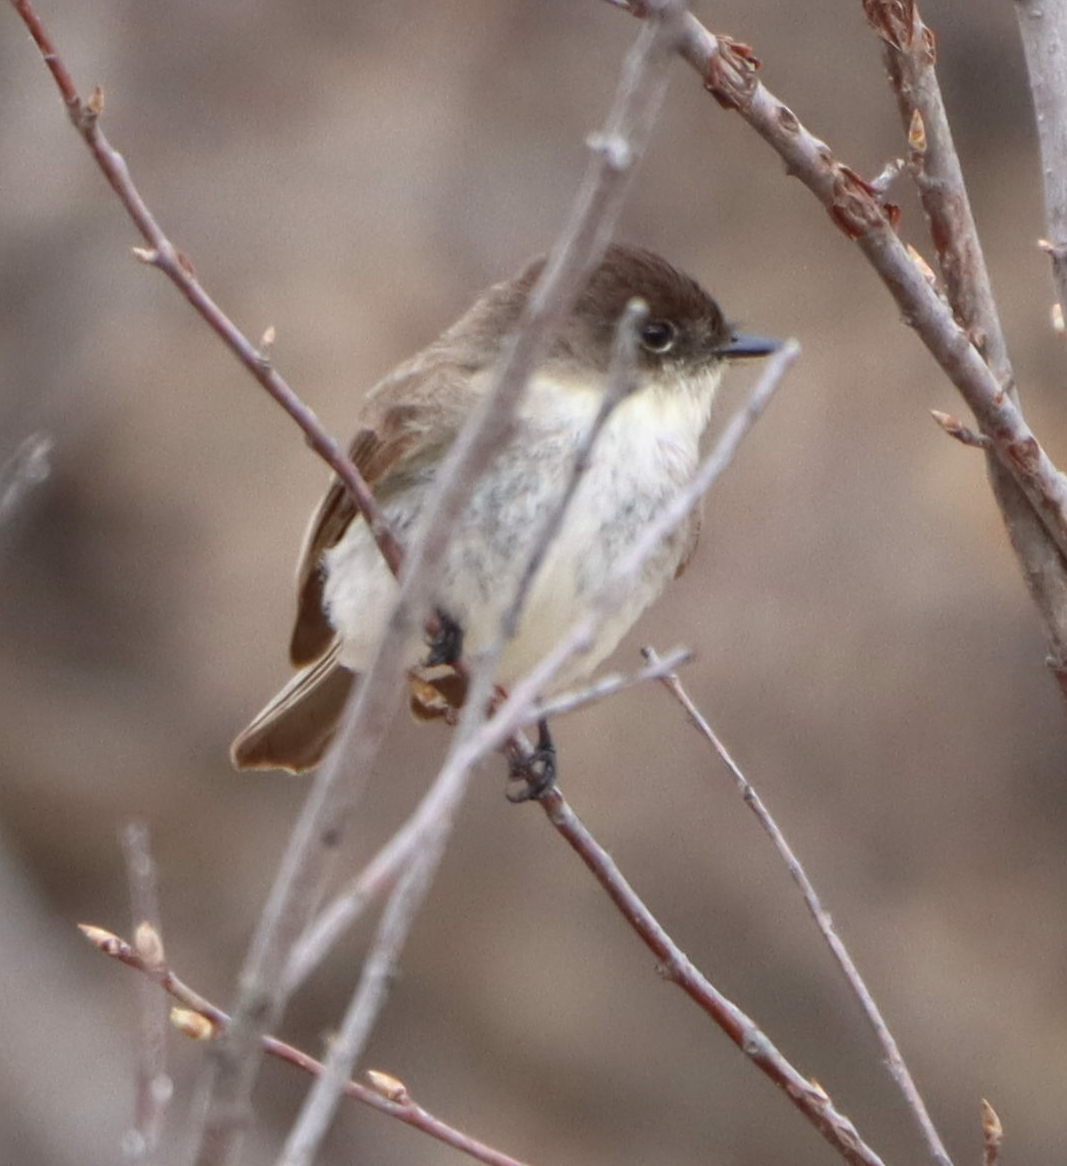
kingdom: Animalia
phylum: Chordata
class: Aves
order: Passeriformes
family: Tyrannidae
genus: Sayornis
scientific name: Sayornis phoebe
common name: Eastern phoebe
